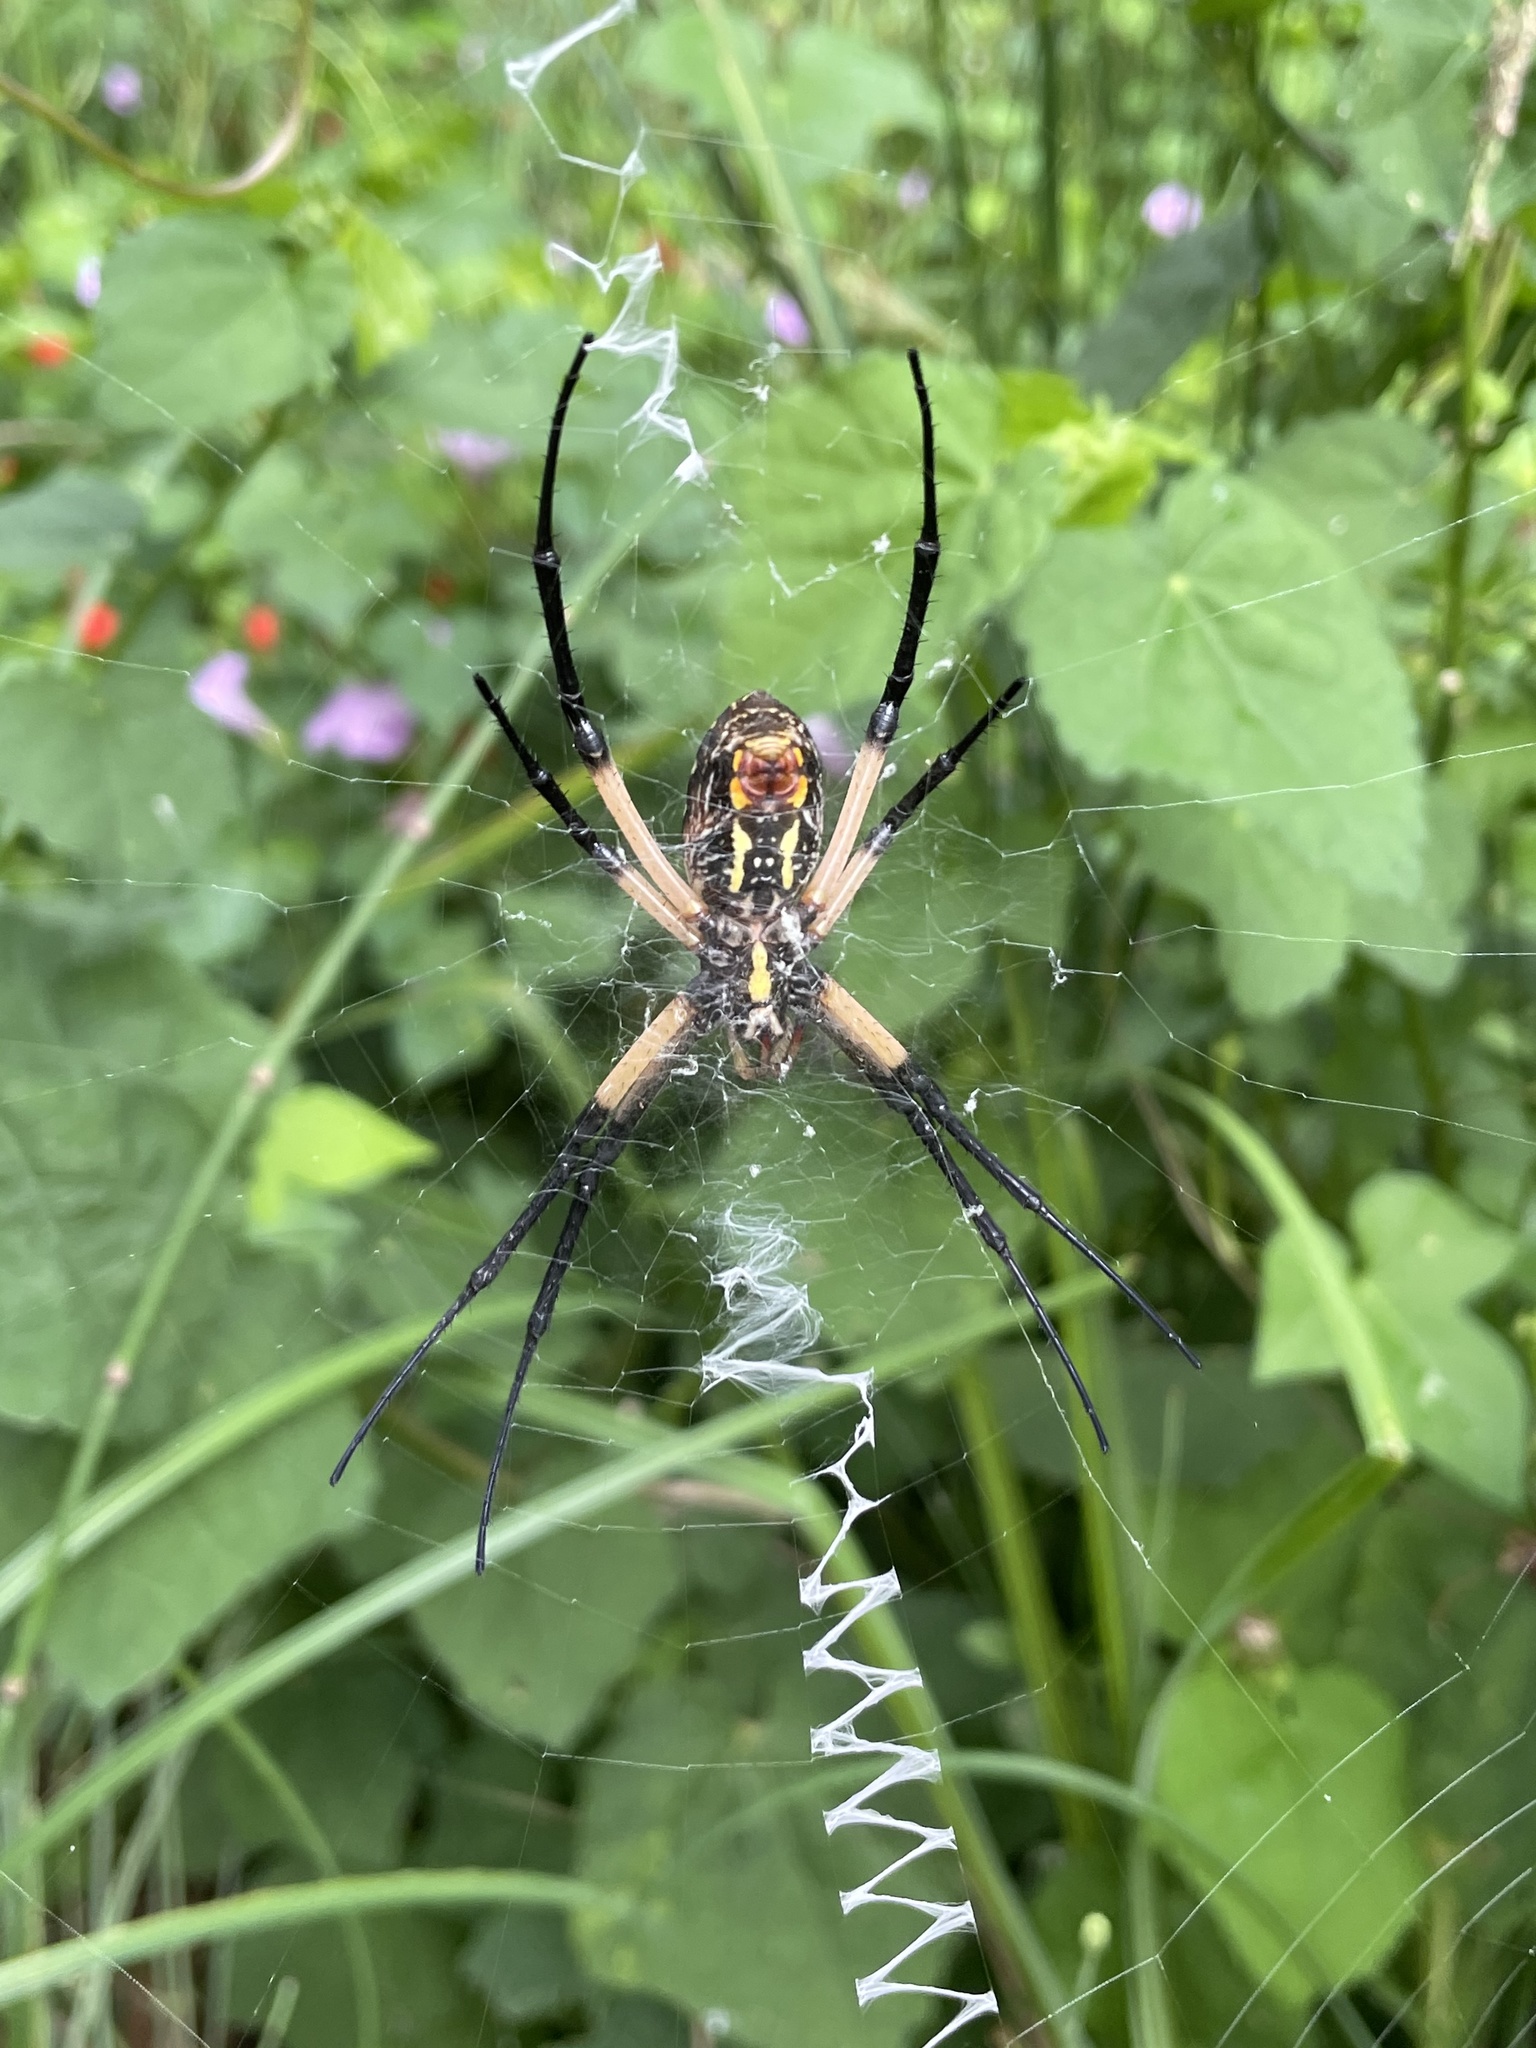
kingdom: Animalia
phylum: Arthropoda
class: Arachnida
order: Araneae
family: Araneidae
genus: Argiope
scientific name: Argiope aurantia
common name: Orb weavers
